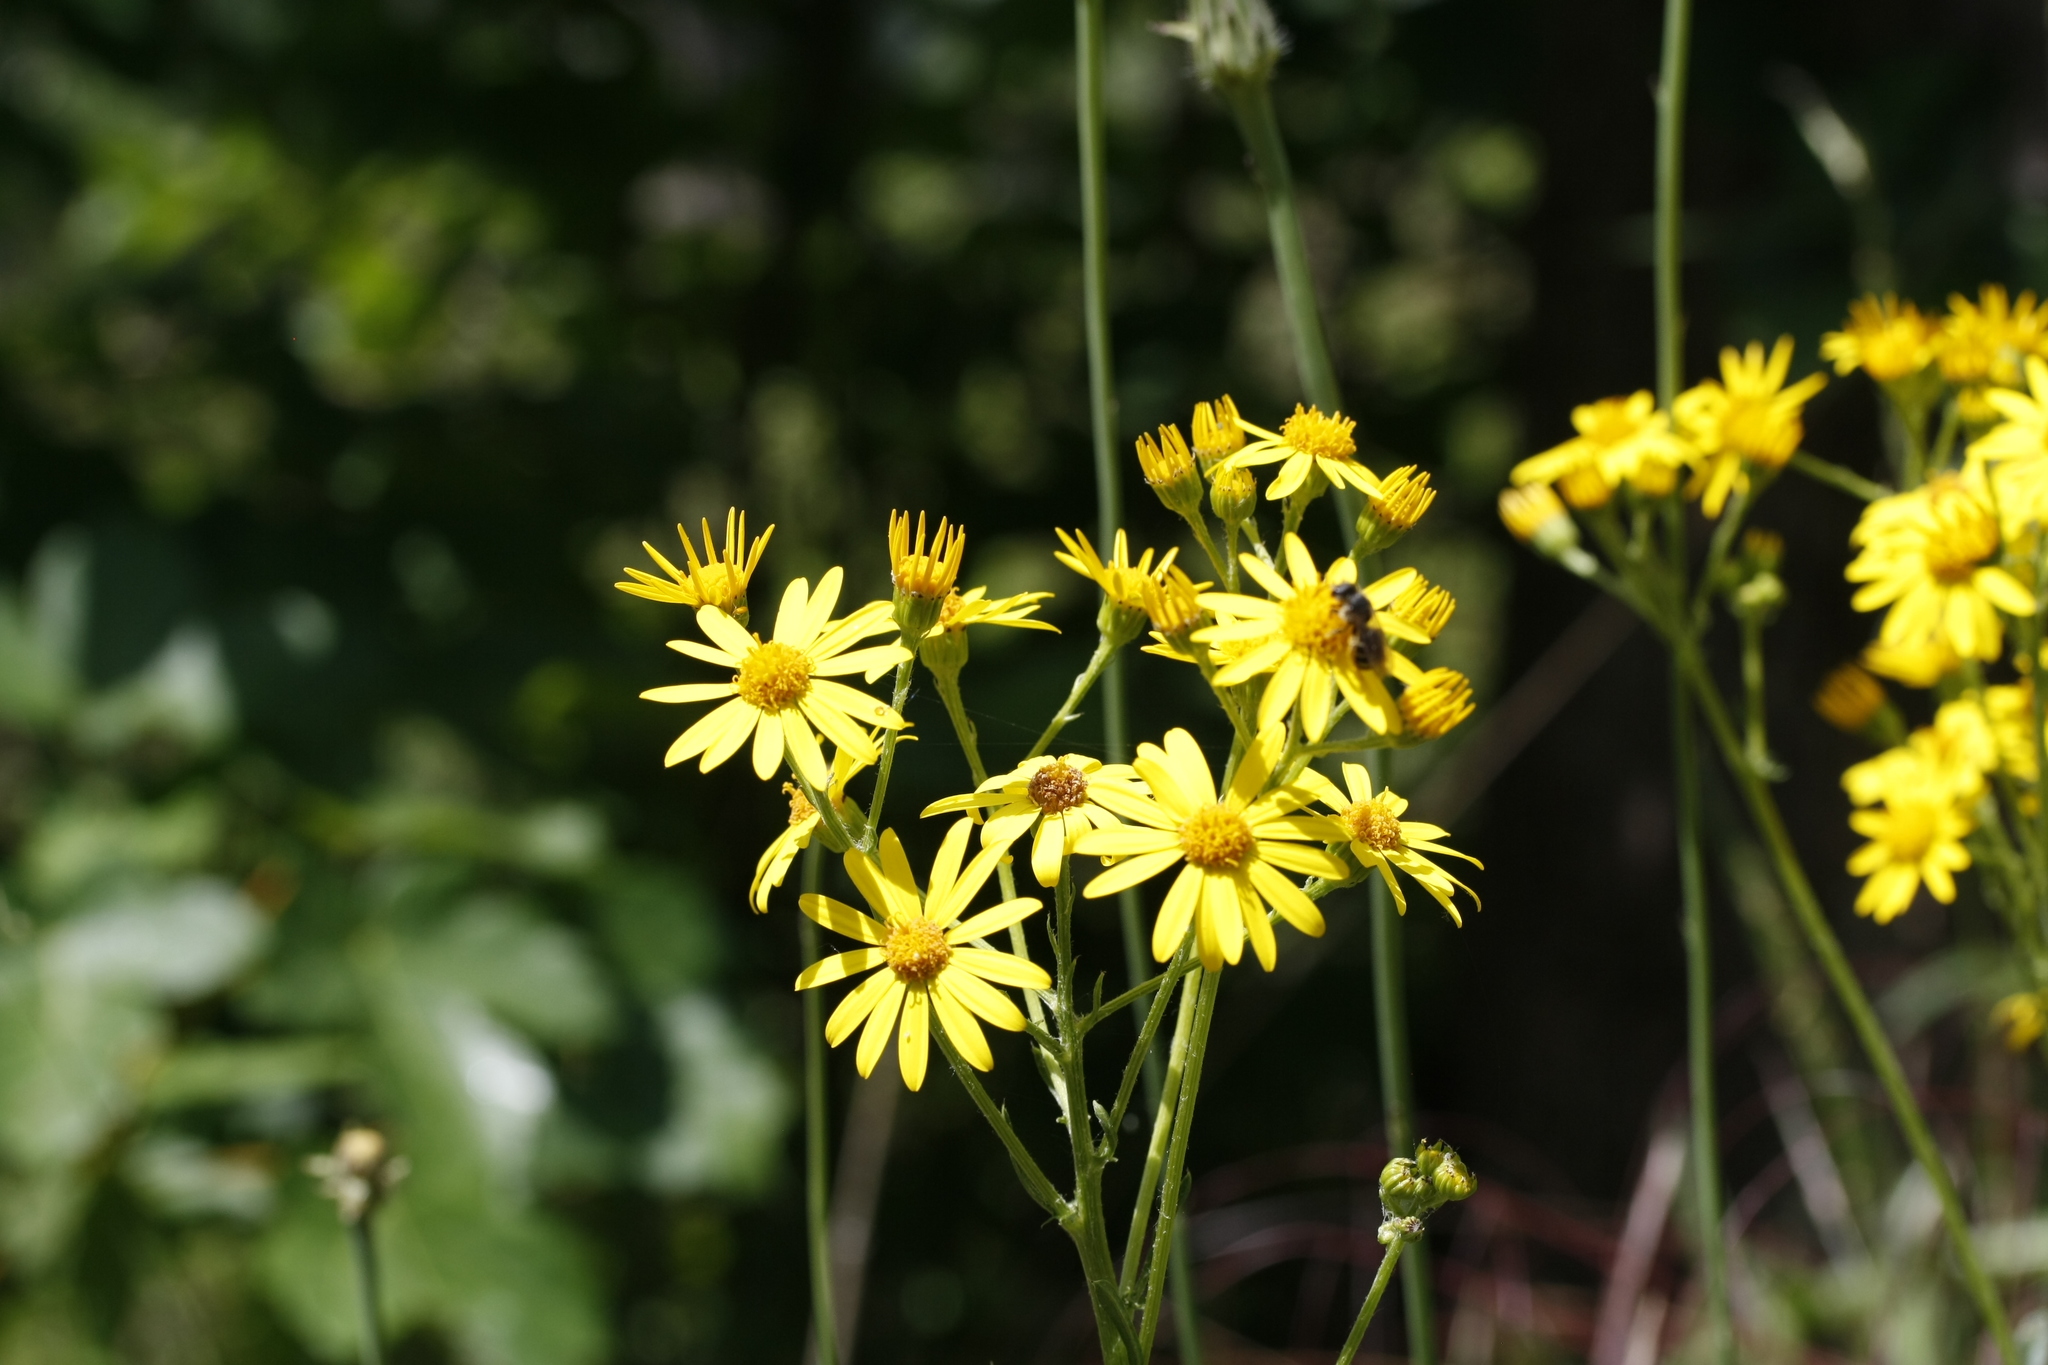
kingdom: Plantae
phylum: Tracheophyta
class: Magnoliopsida
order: Asterales
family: Asteraceae
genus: Jacobaea
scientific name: Jacobaea vulgaris
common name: Stinking willie
